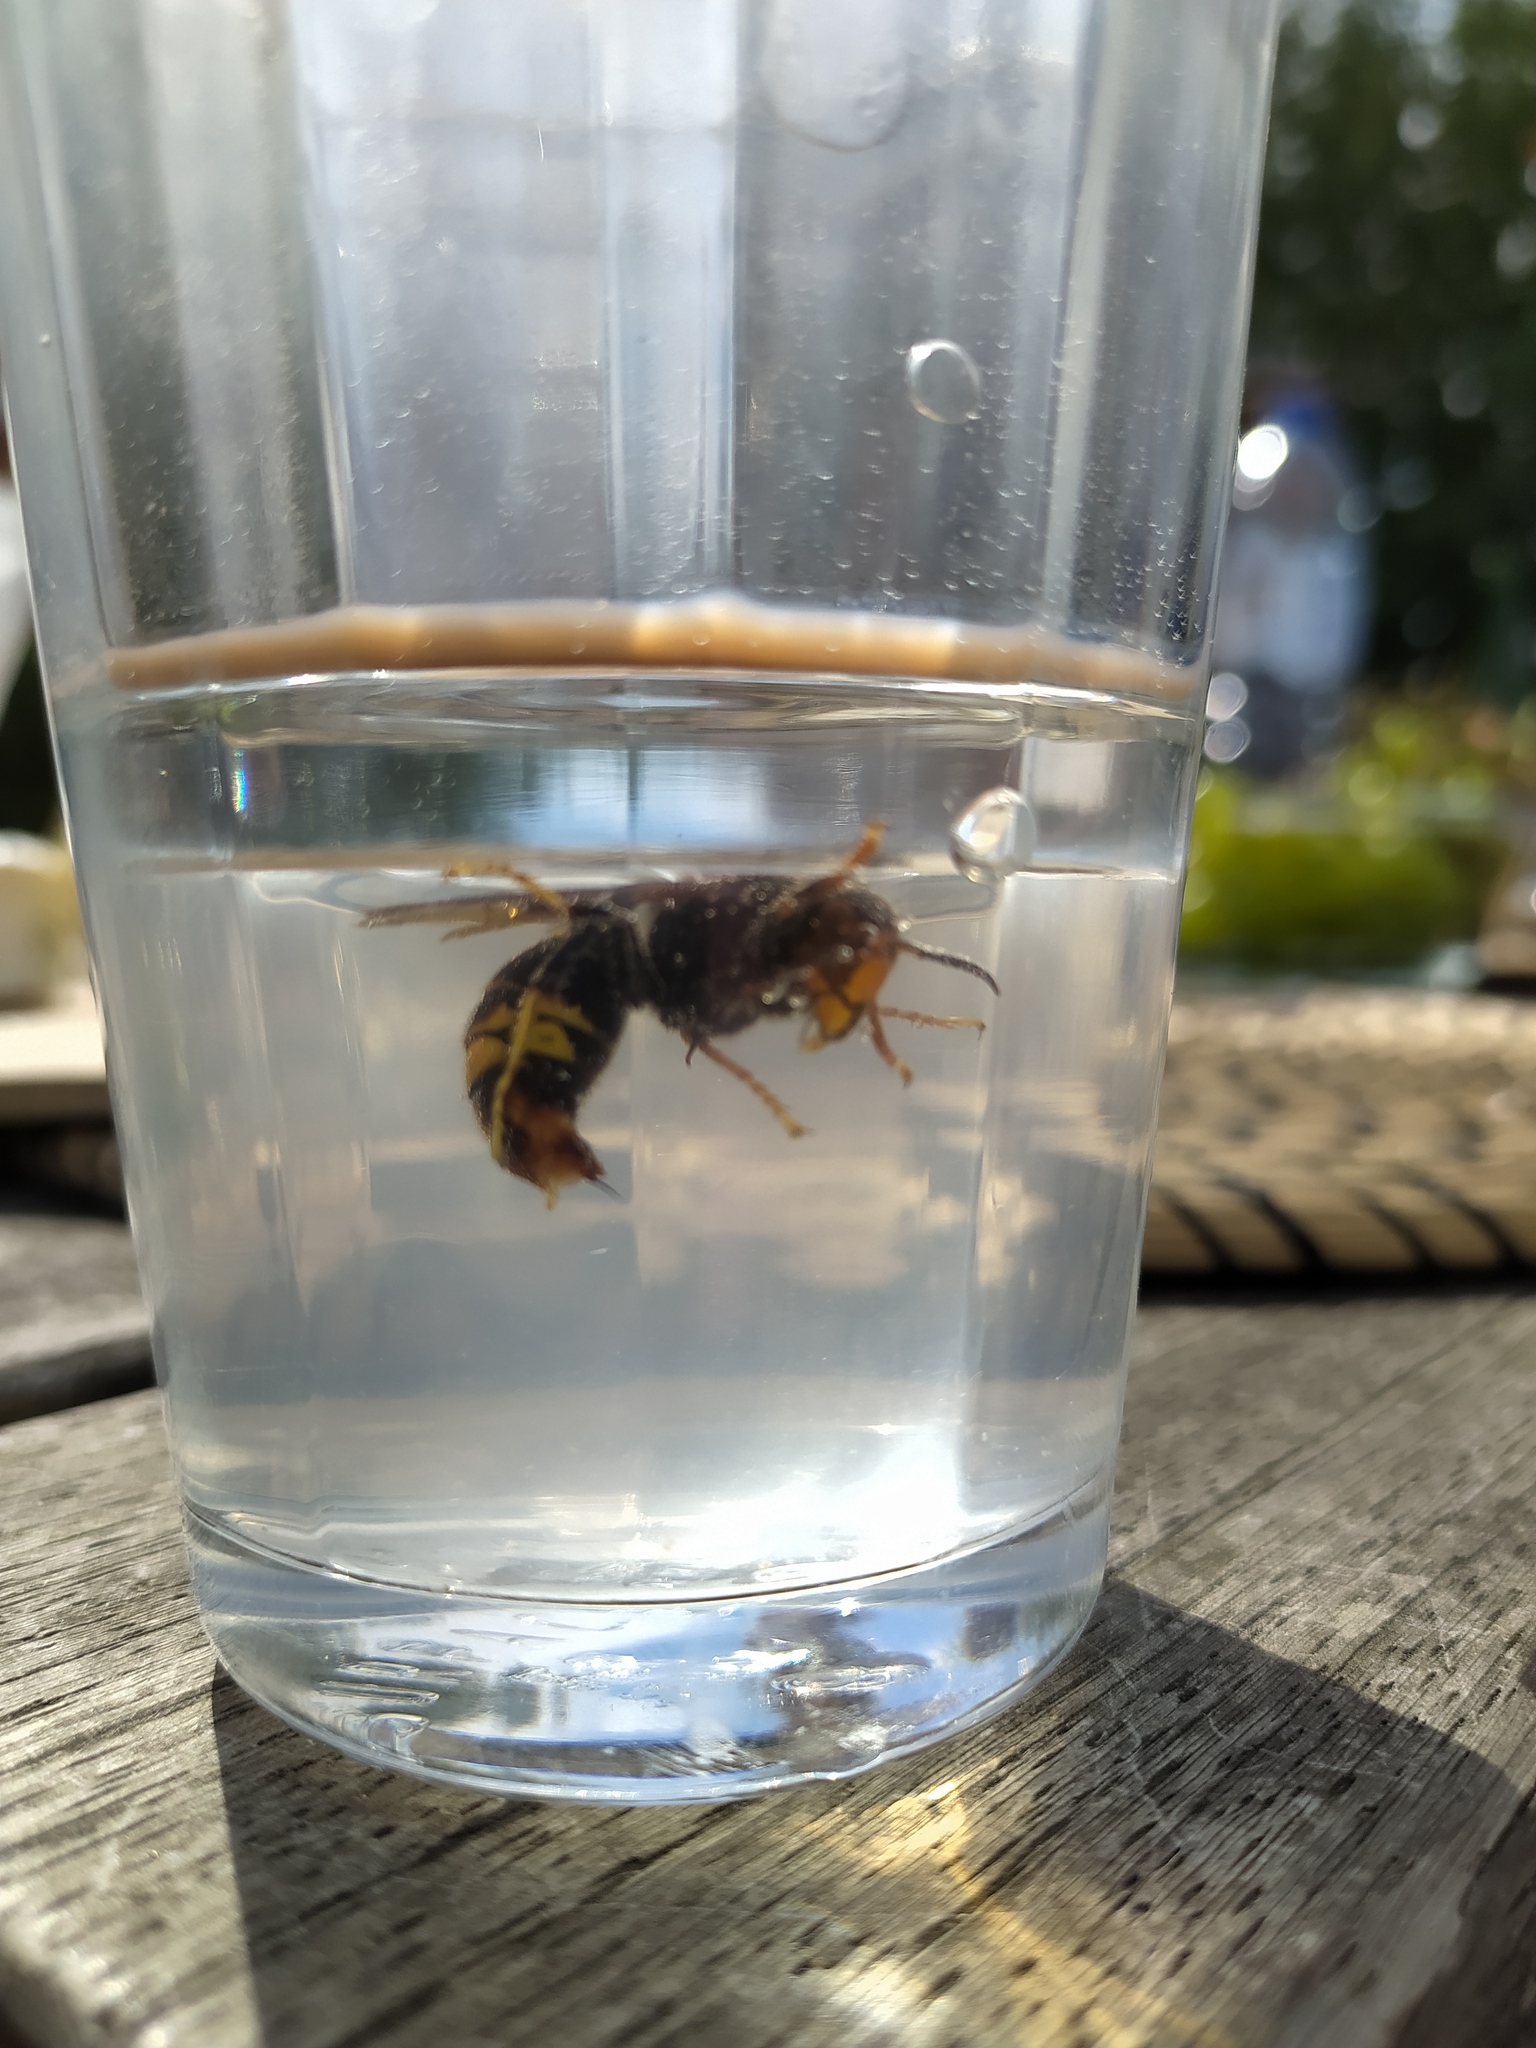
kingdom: Animalia
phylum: Arthropoda
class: Insecta
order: Hymenoptera
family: Vespidae
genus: Vespa
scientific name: Vespa velutina
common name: Asian hornet
